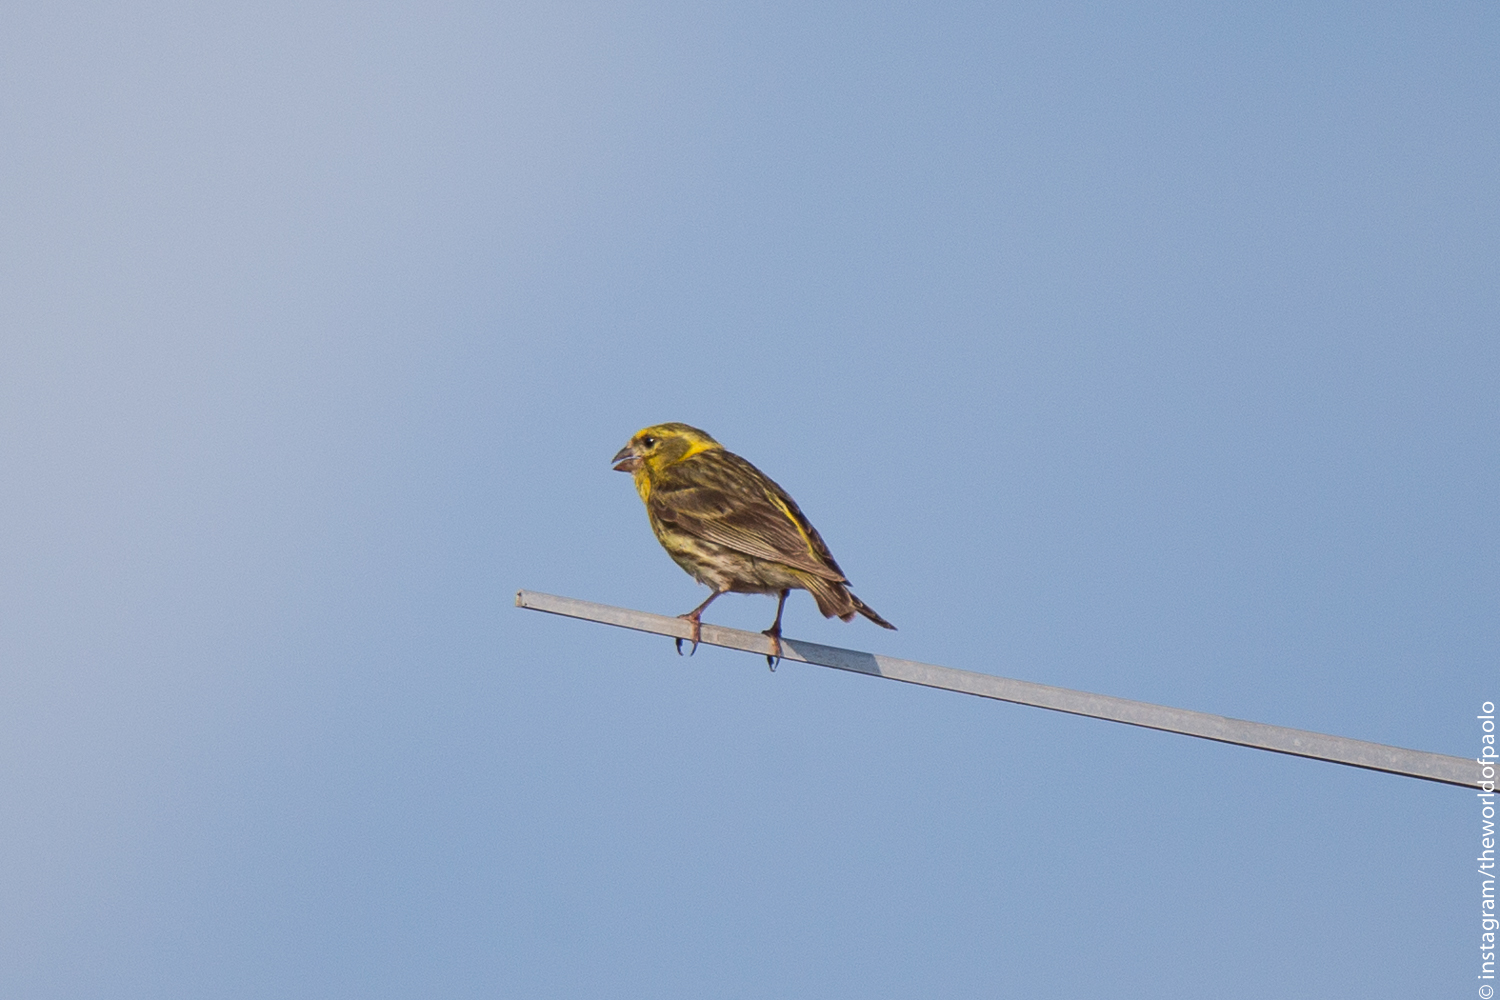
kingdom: Animalia
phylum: Chordata
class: Aves
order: Passeriformes
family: Fringillidae
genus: Serinus
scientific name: Serinus serinus
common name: European serin
